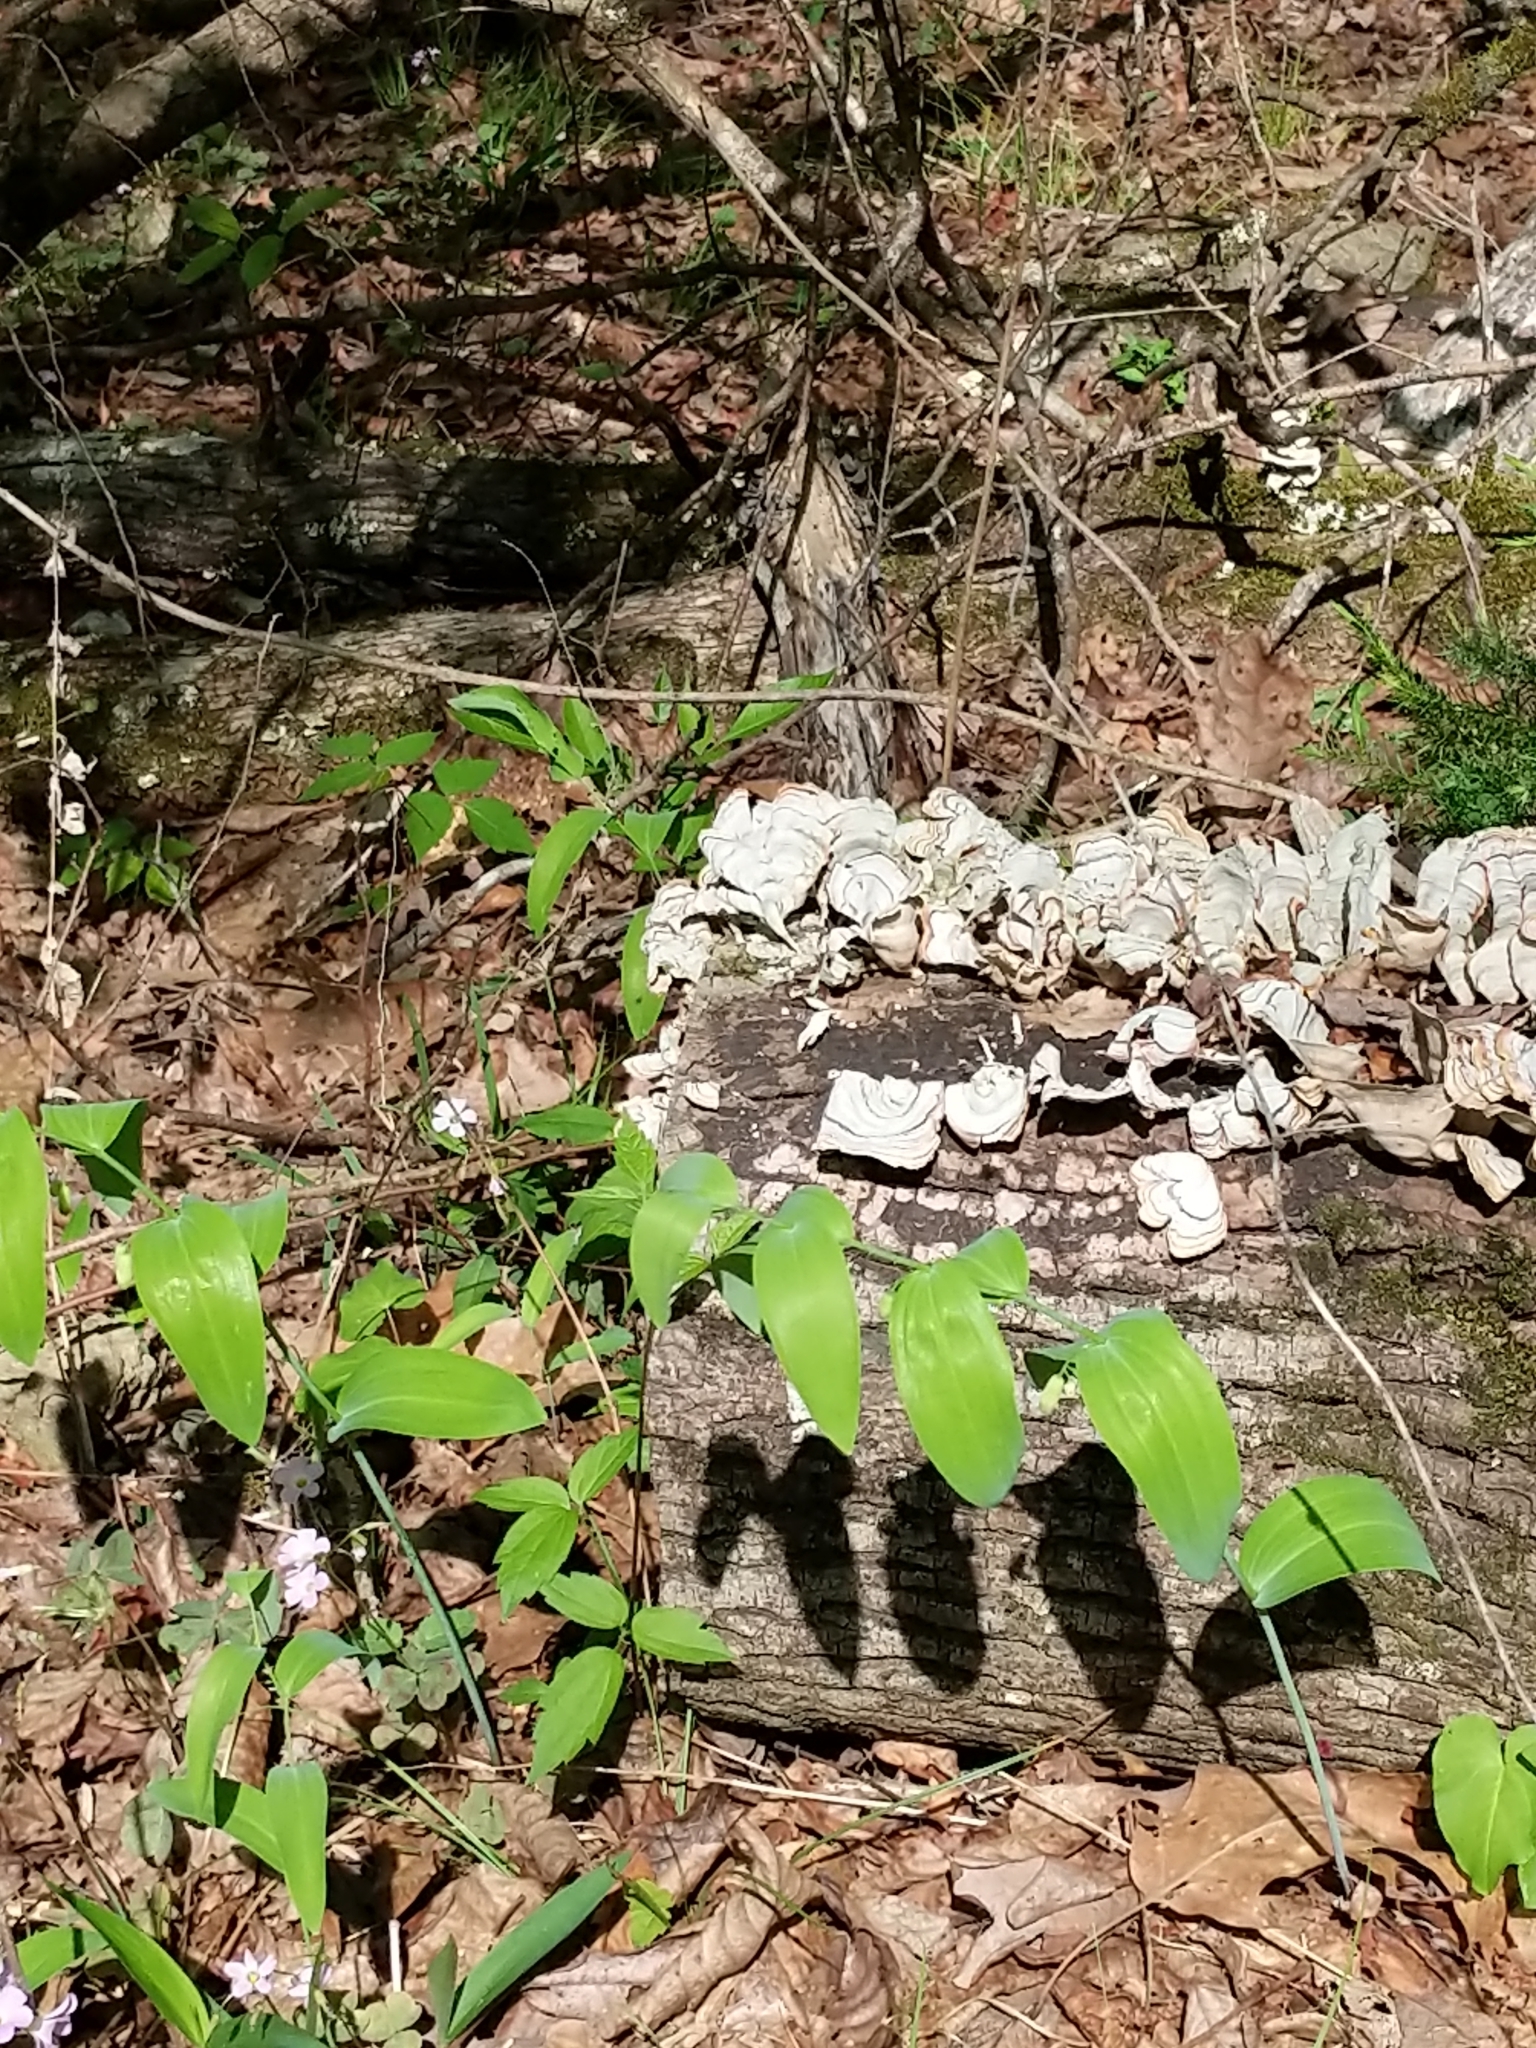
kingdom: Plantae
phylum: Tracheophyta
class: Liliopsida
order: Asparagales
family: Asparagaceae
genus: Polygonatum
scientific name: Polygonatum biflorum
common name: American solomon's-seal
